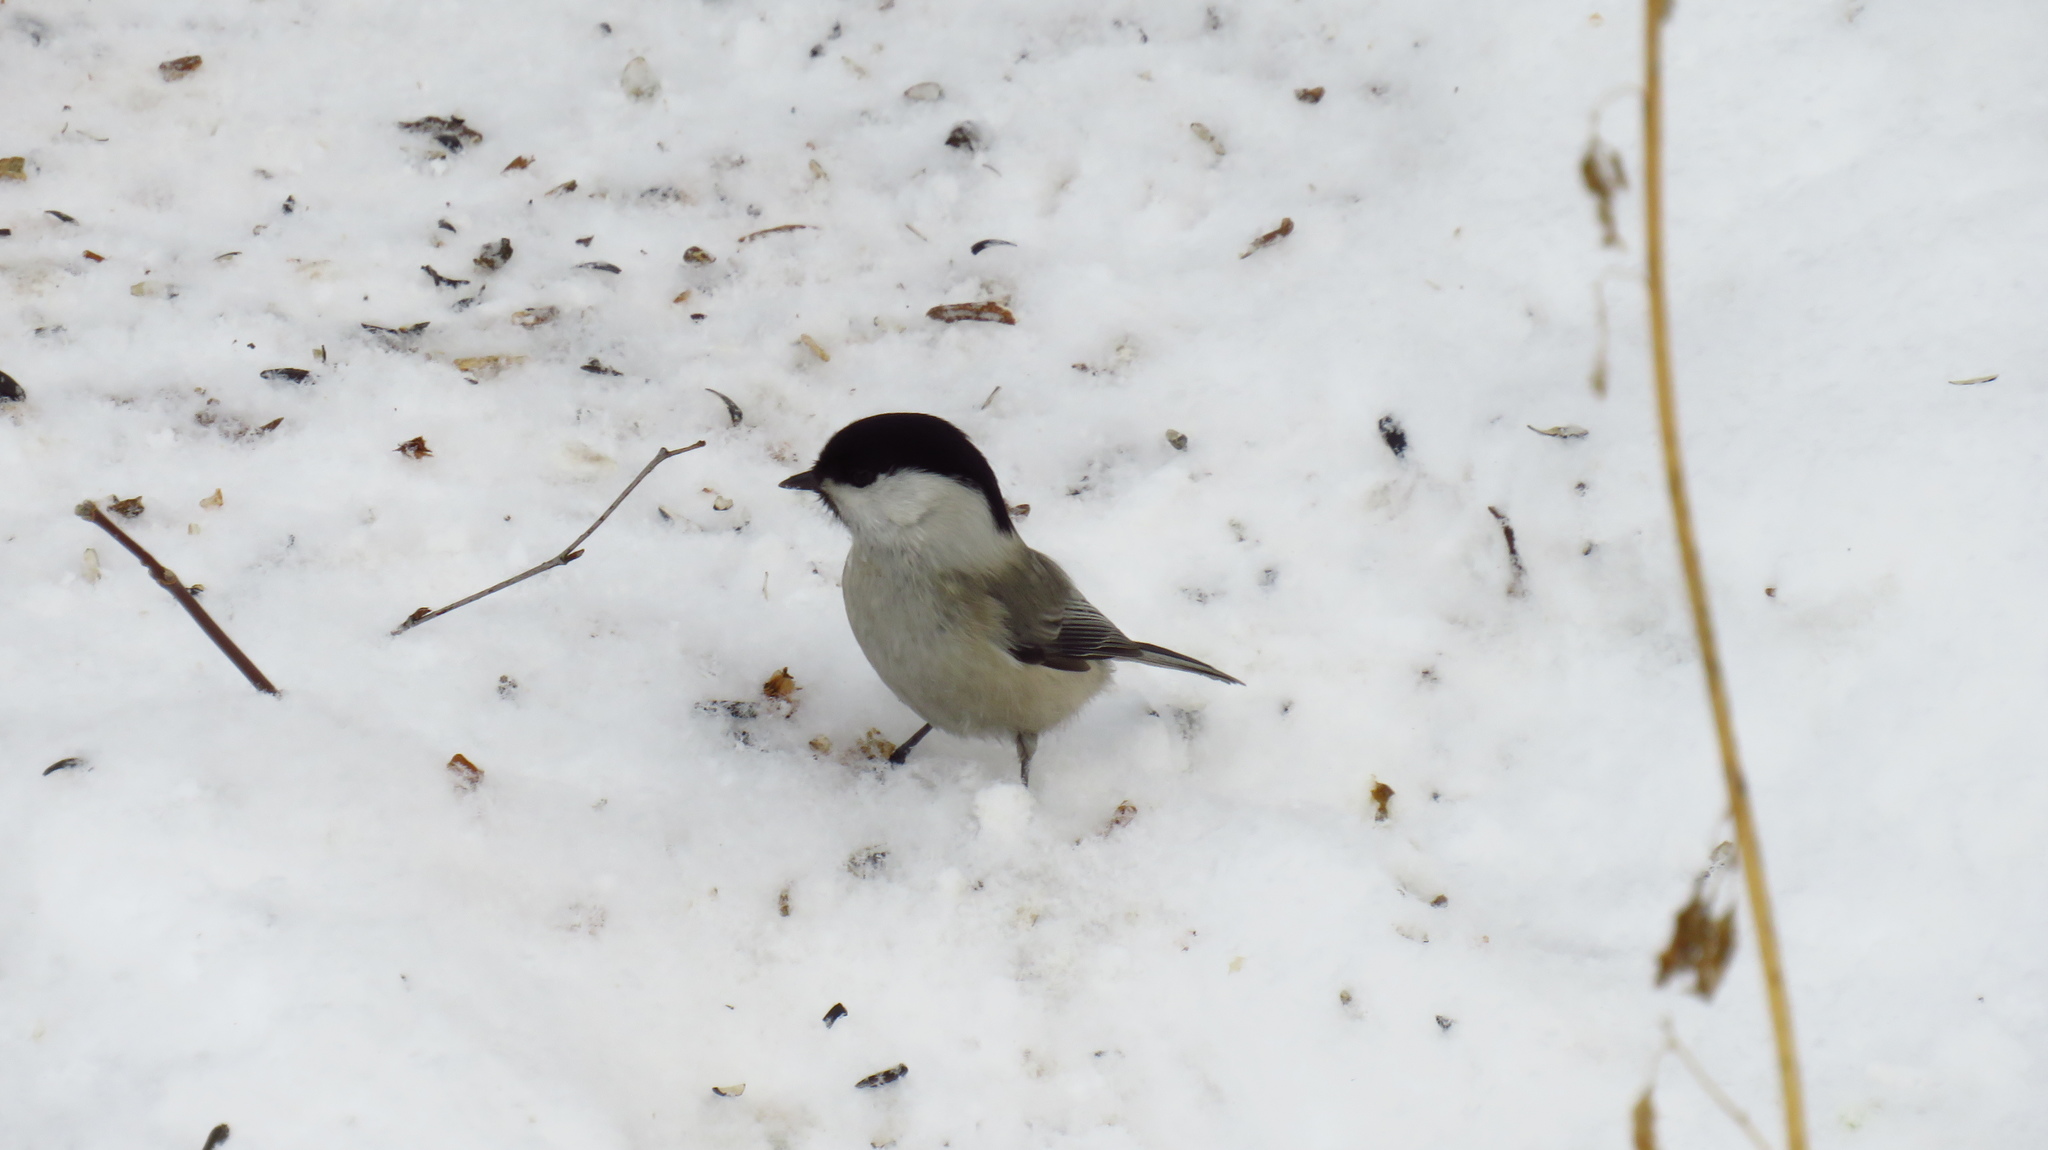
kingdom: Animalia
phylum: Chordata
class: Aves
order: Passeriformes
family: Paridae
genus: Poecile
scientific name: Poecile montanus
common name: Willow tit
